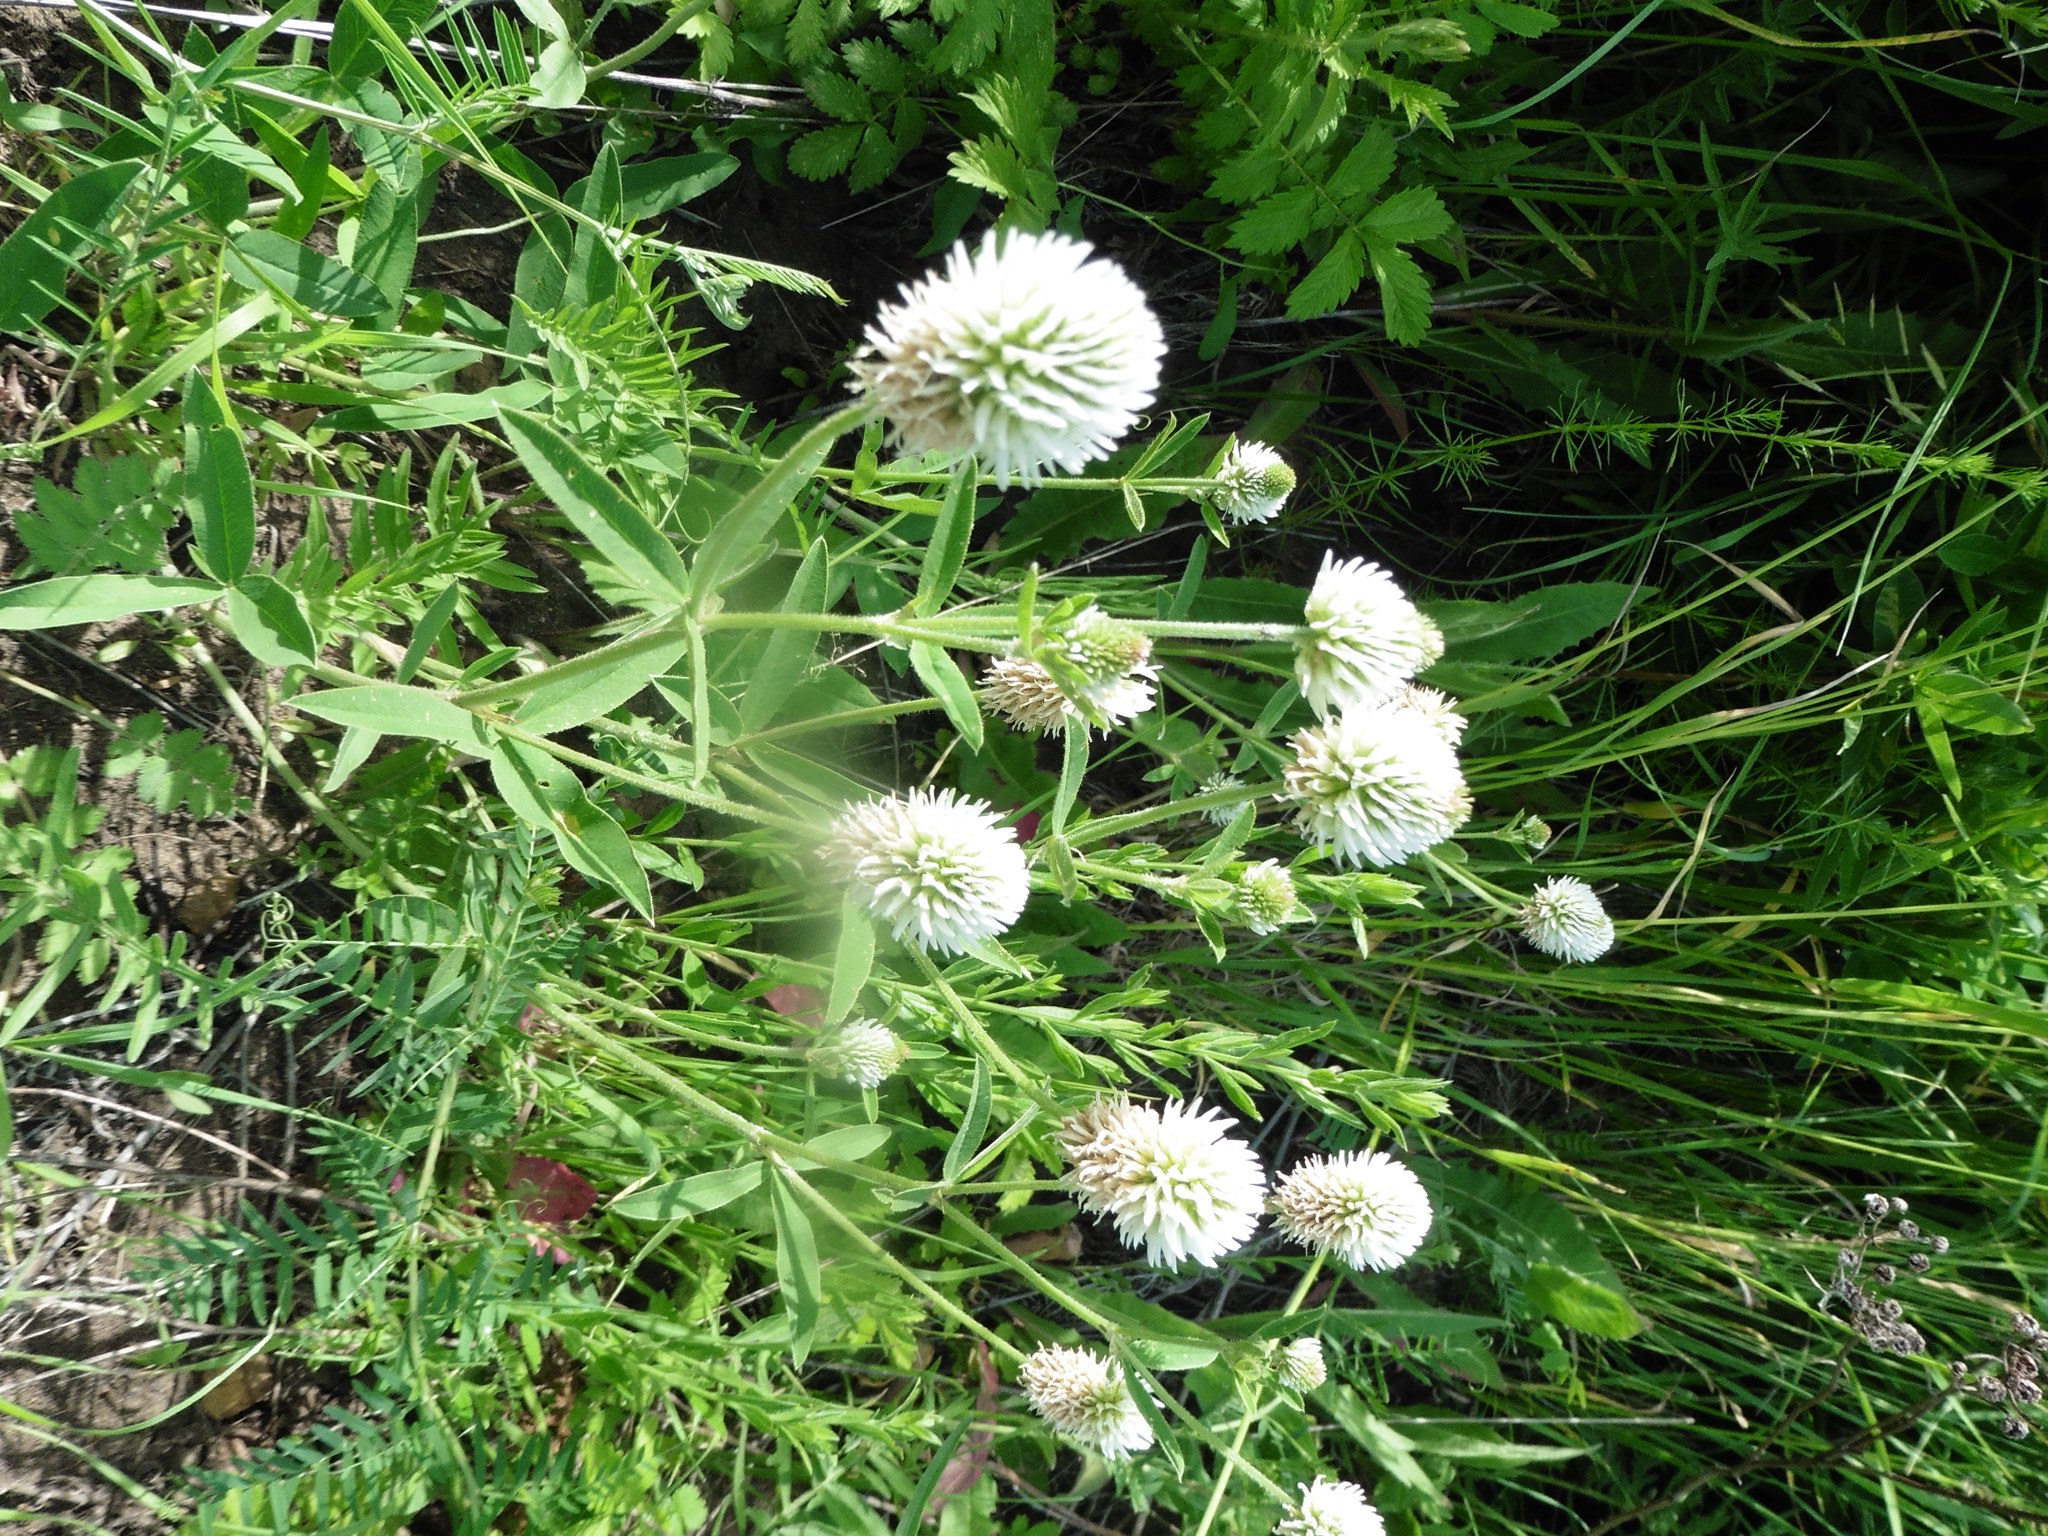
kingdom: Plantae
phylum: Tracheophyta
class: Magnoliopsida
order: Fabales
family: Fabaceae
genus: Trifolium
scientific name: Trifolium montanum
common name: Mountain clover
